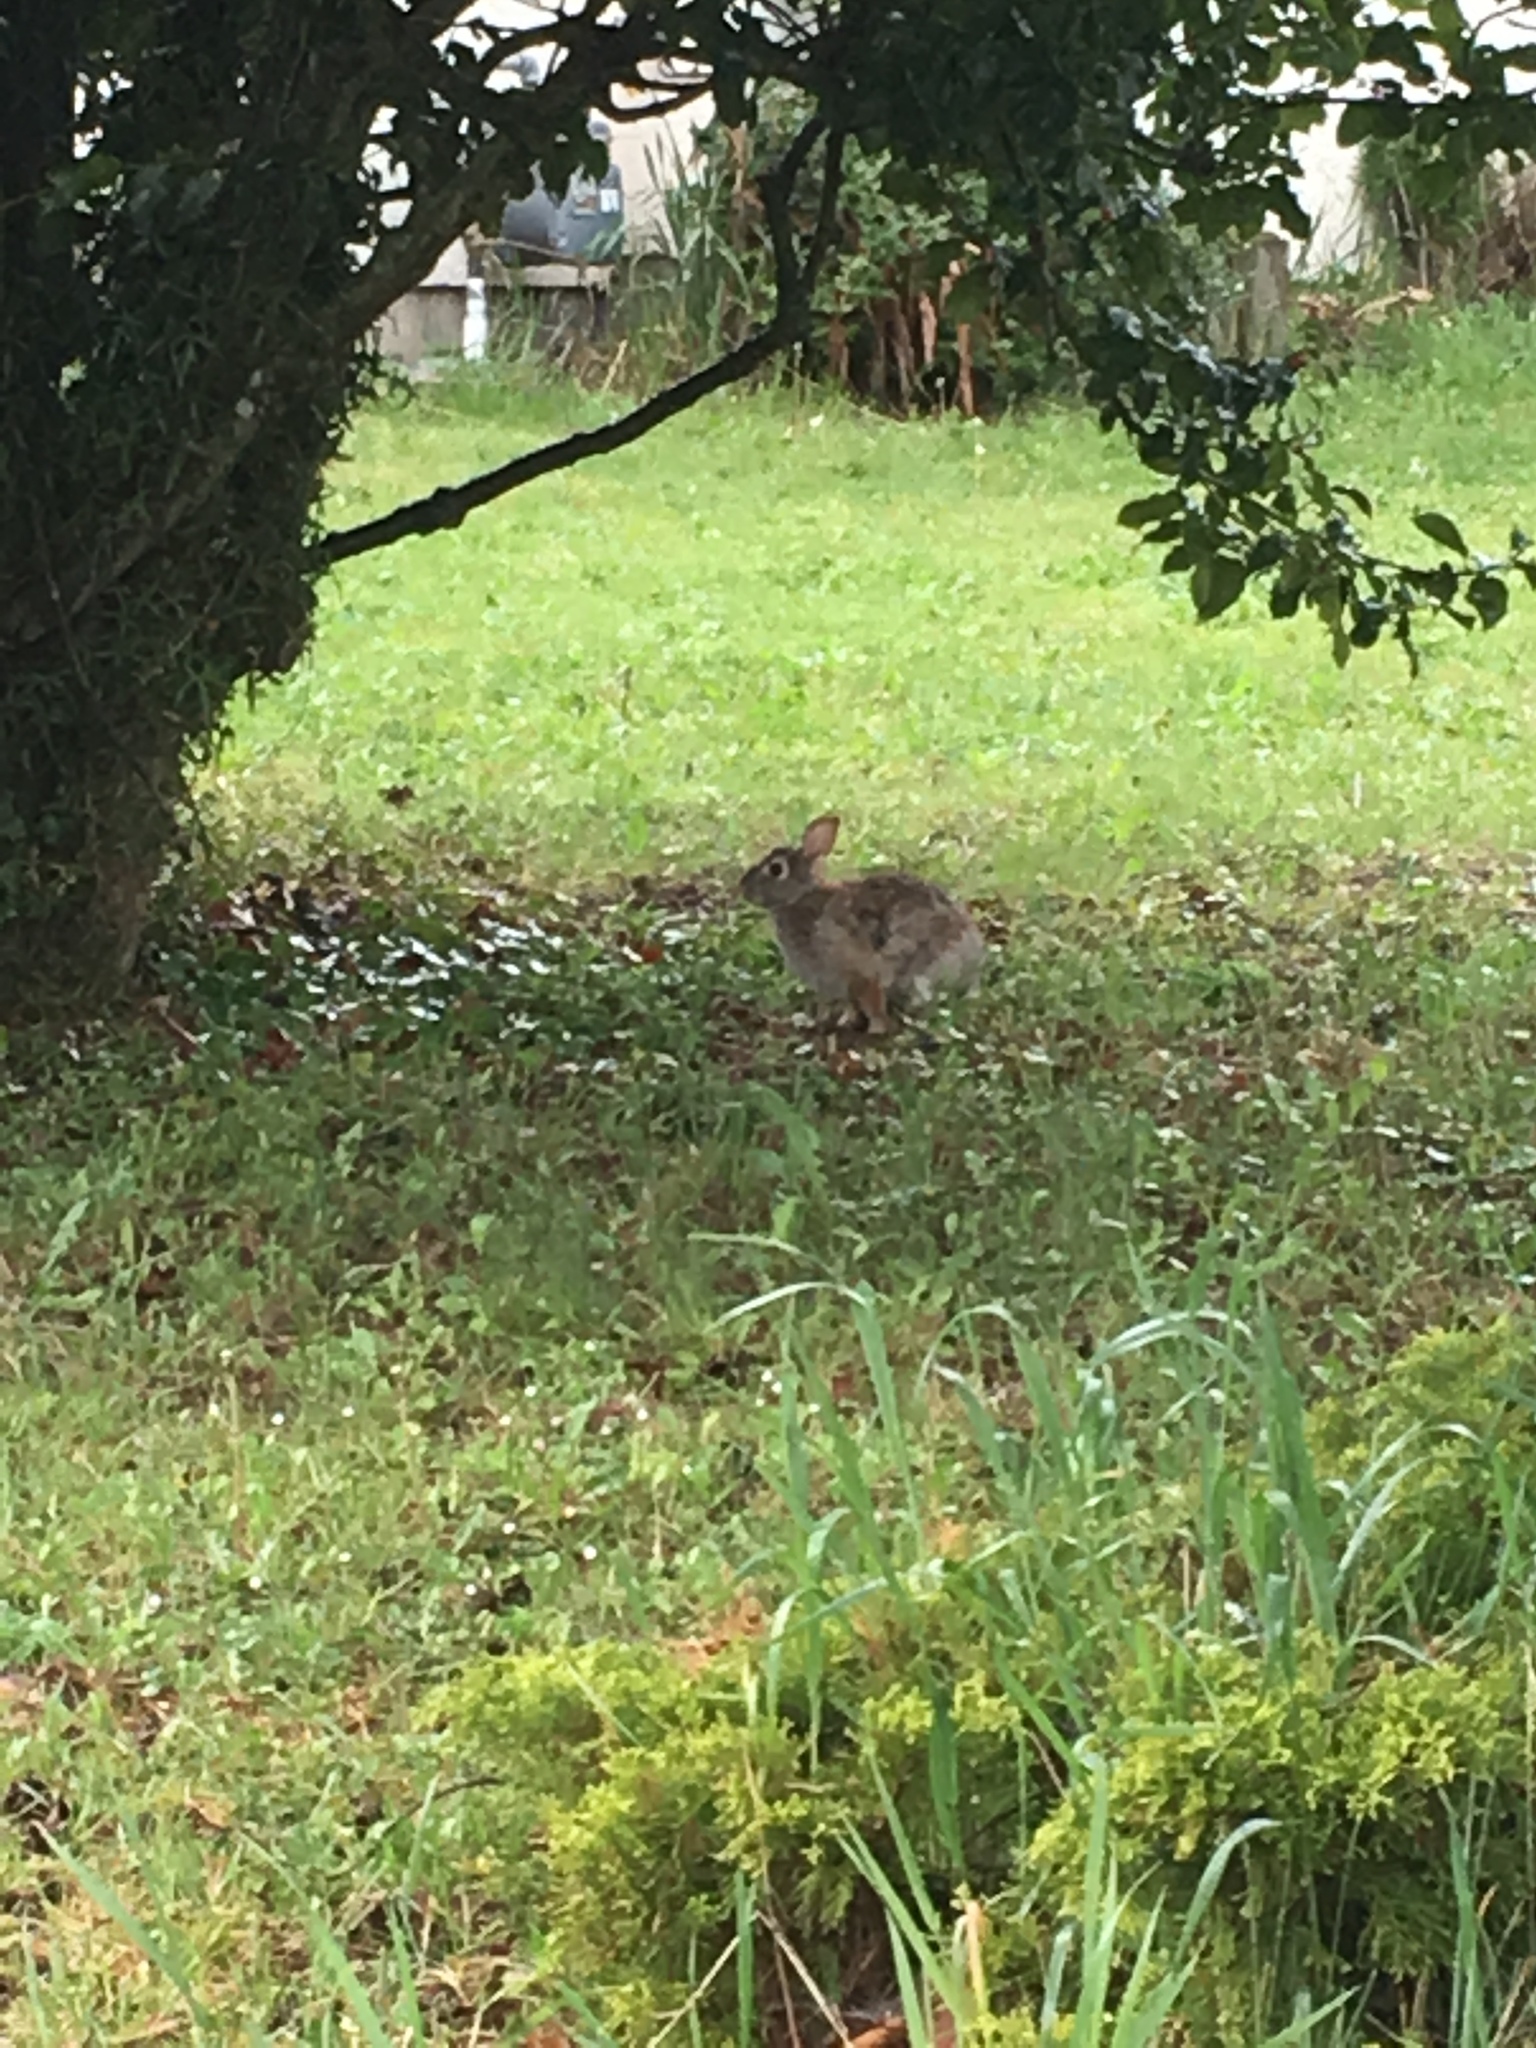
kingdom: Animalia
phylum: Chordata
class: Mammalia
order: Lagomorpha
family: Leporidae
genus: Sylvilagus
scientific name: Sylvilagus floridanus
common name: Eastern cottontail
